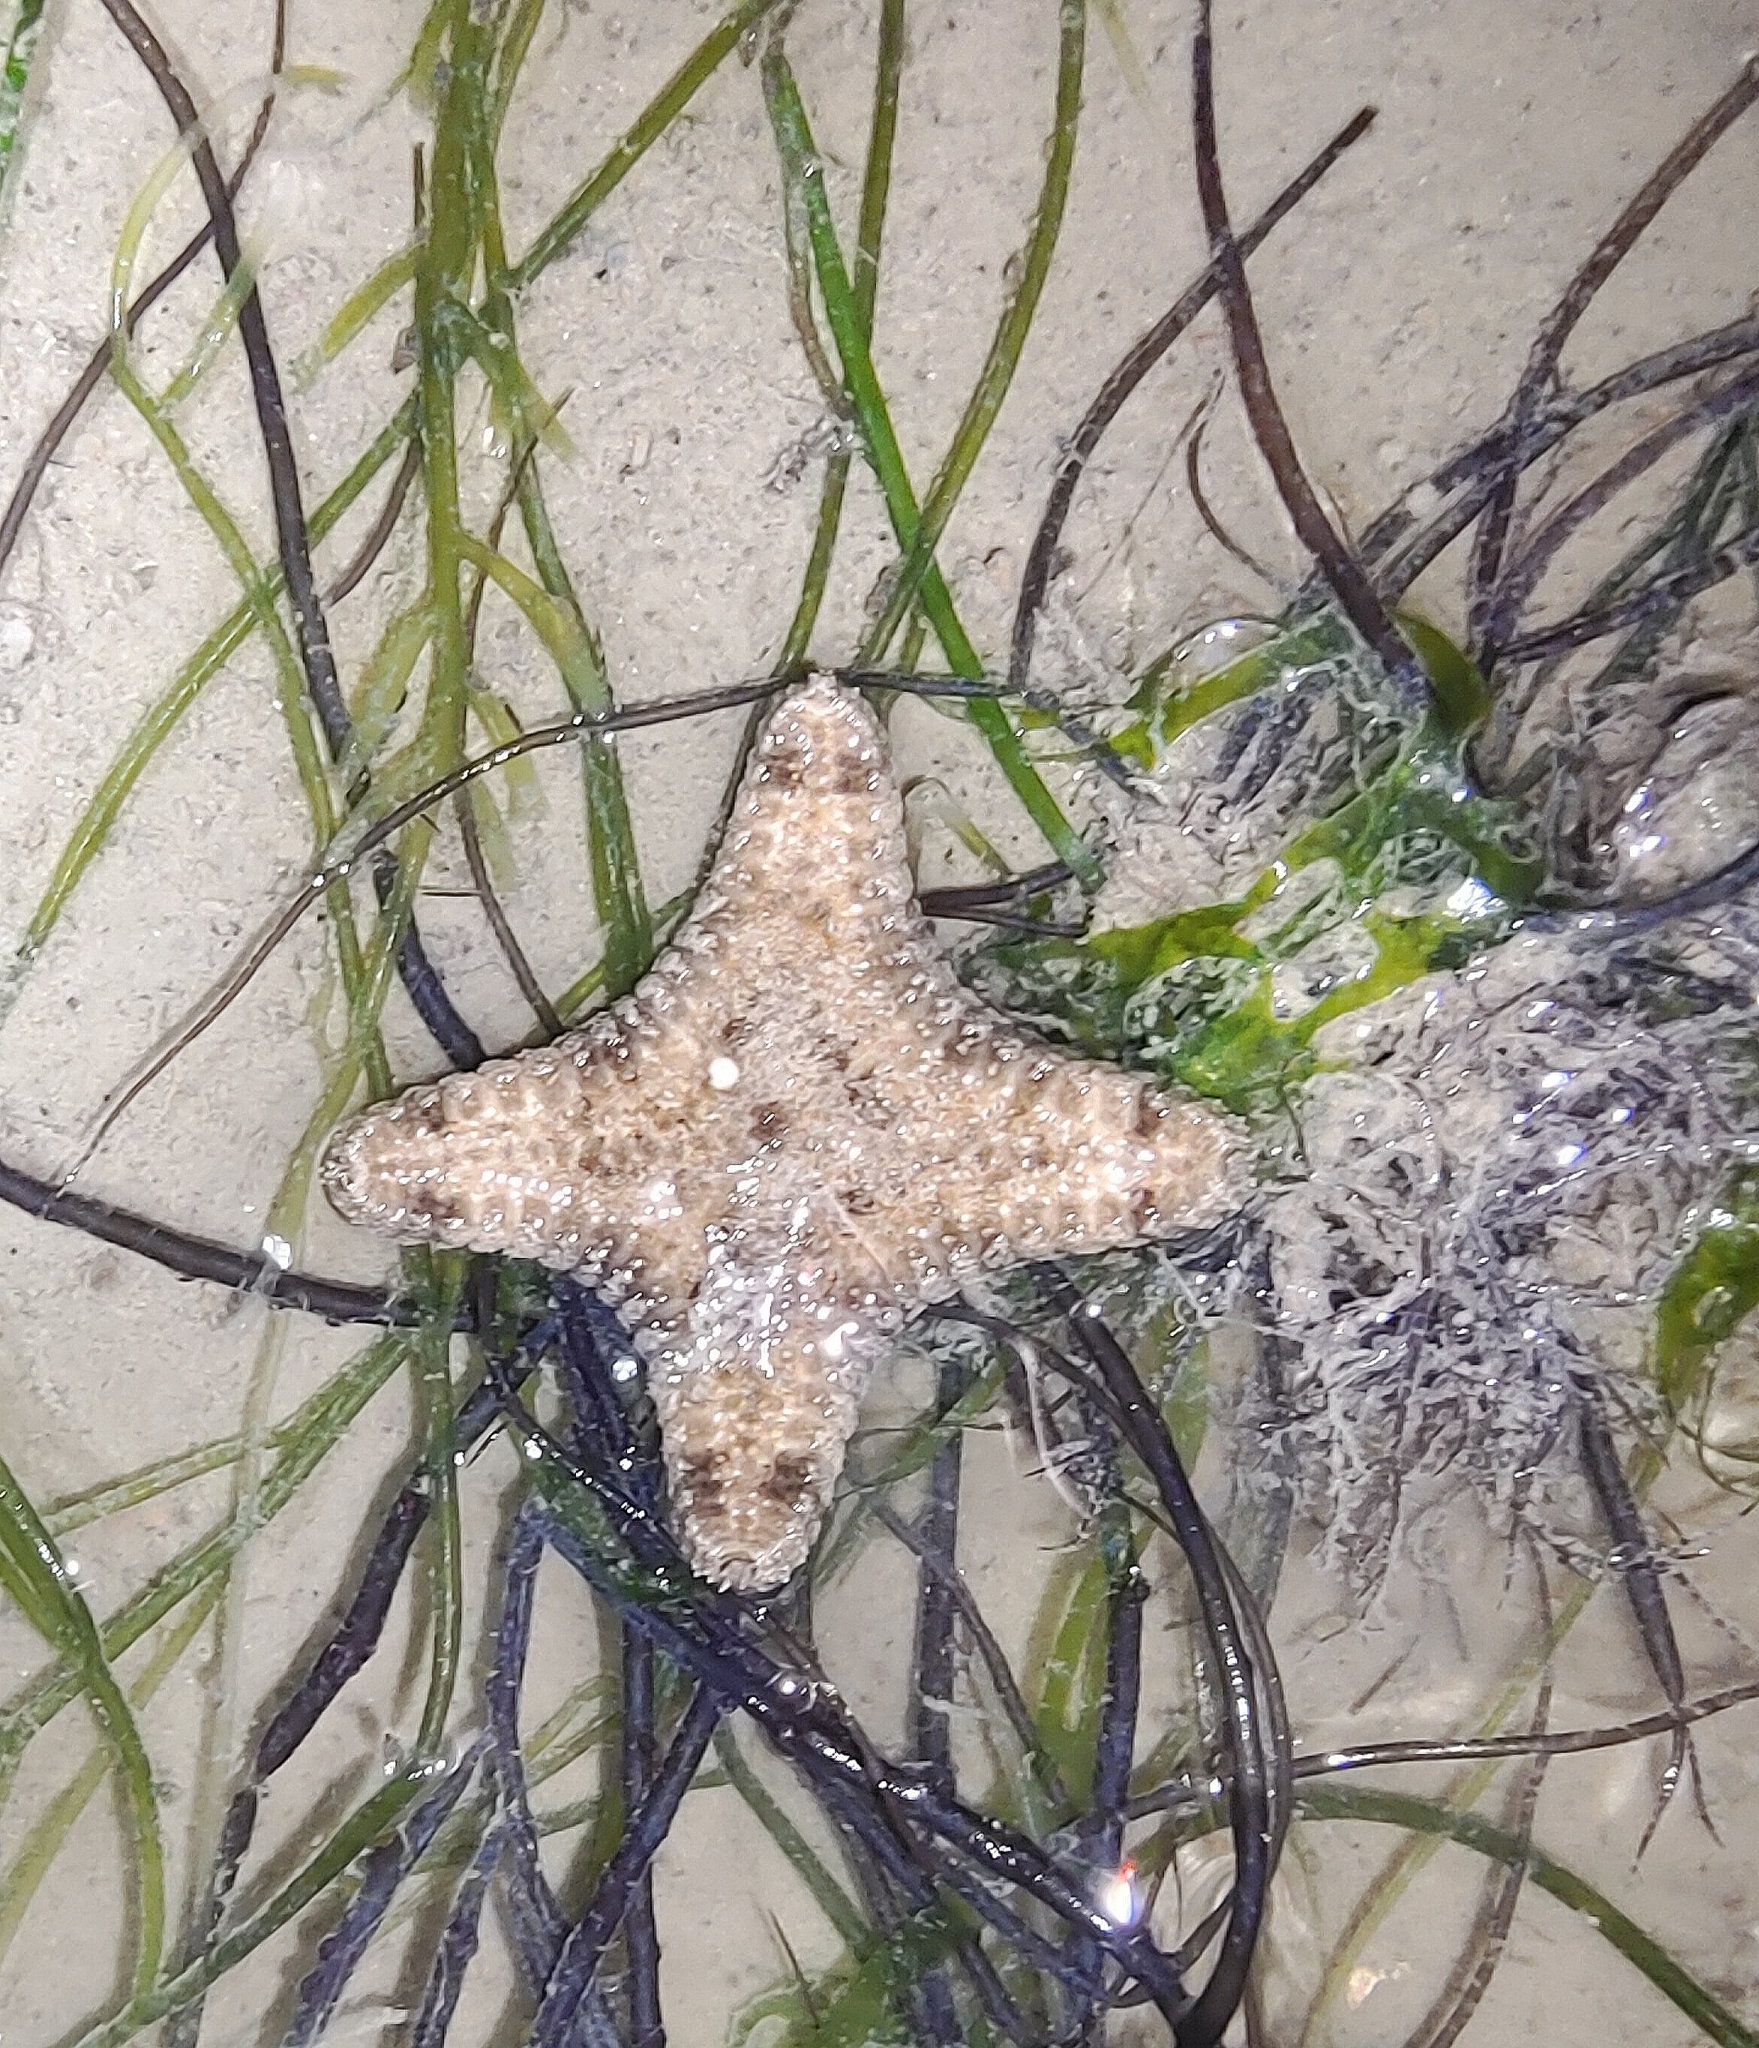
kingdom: Animalia
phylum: Echinodermata
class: Asteroidea
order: Valvatida
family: Goniasteridae
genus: Goniodiscaster
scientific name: Goniodiscaster scaber
